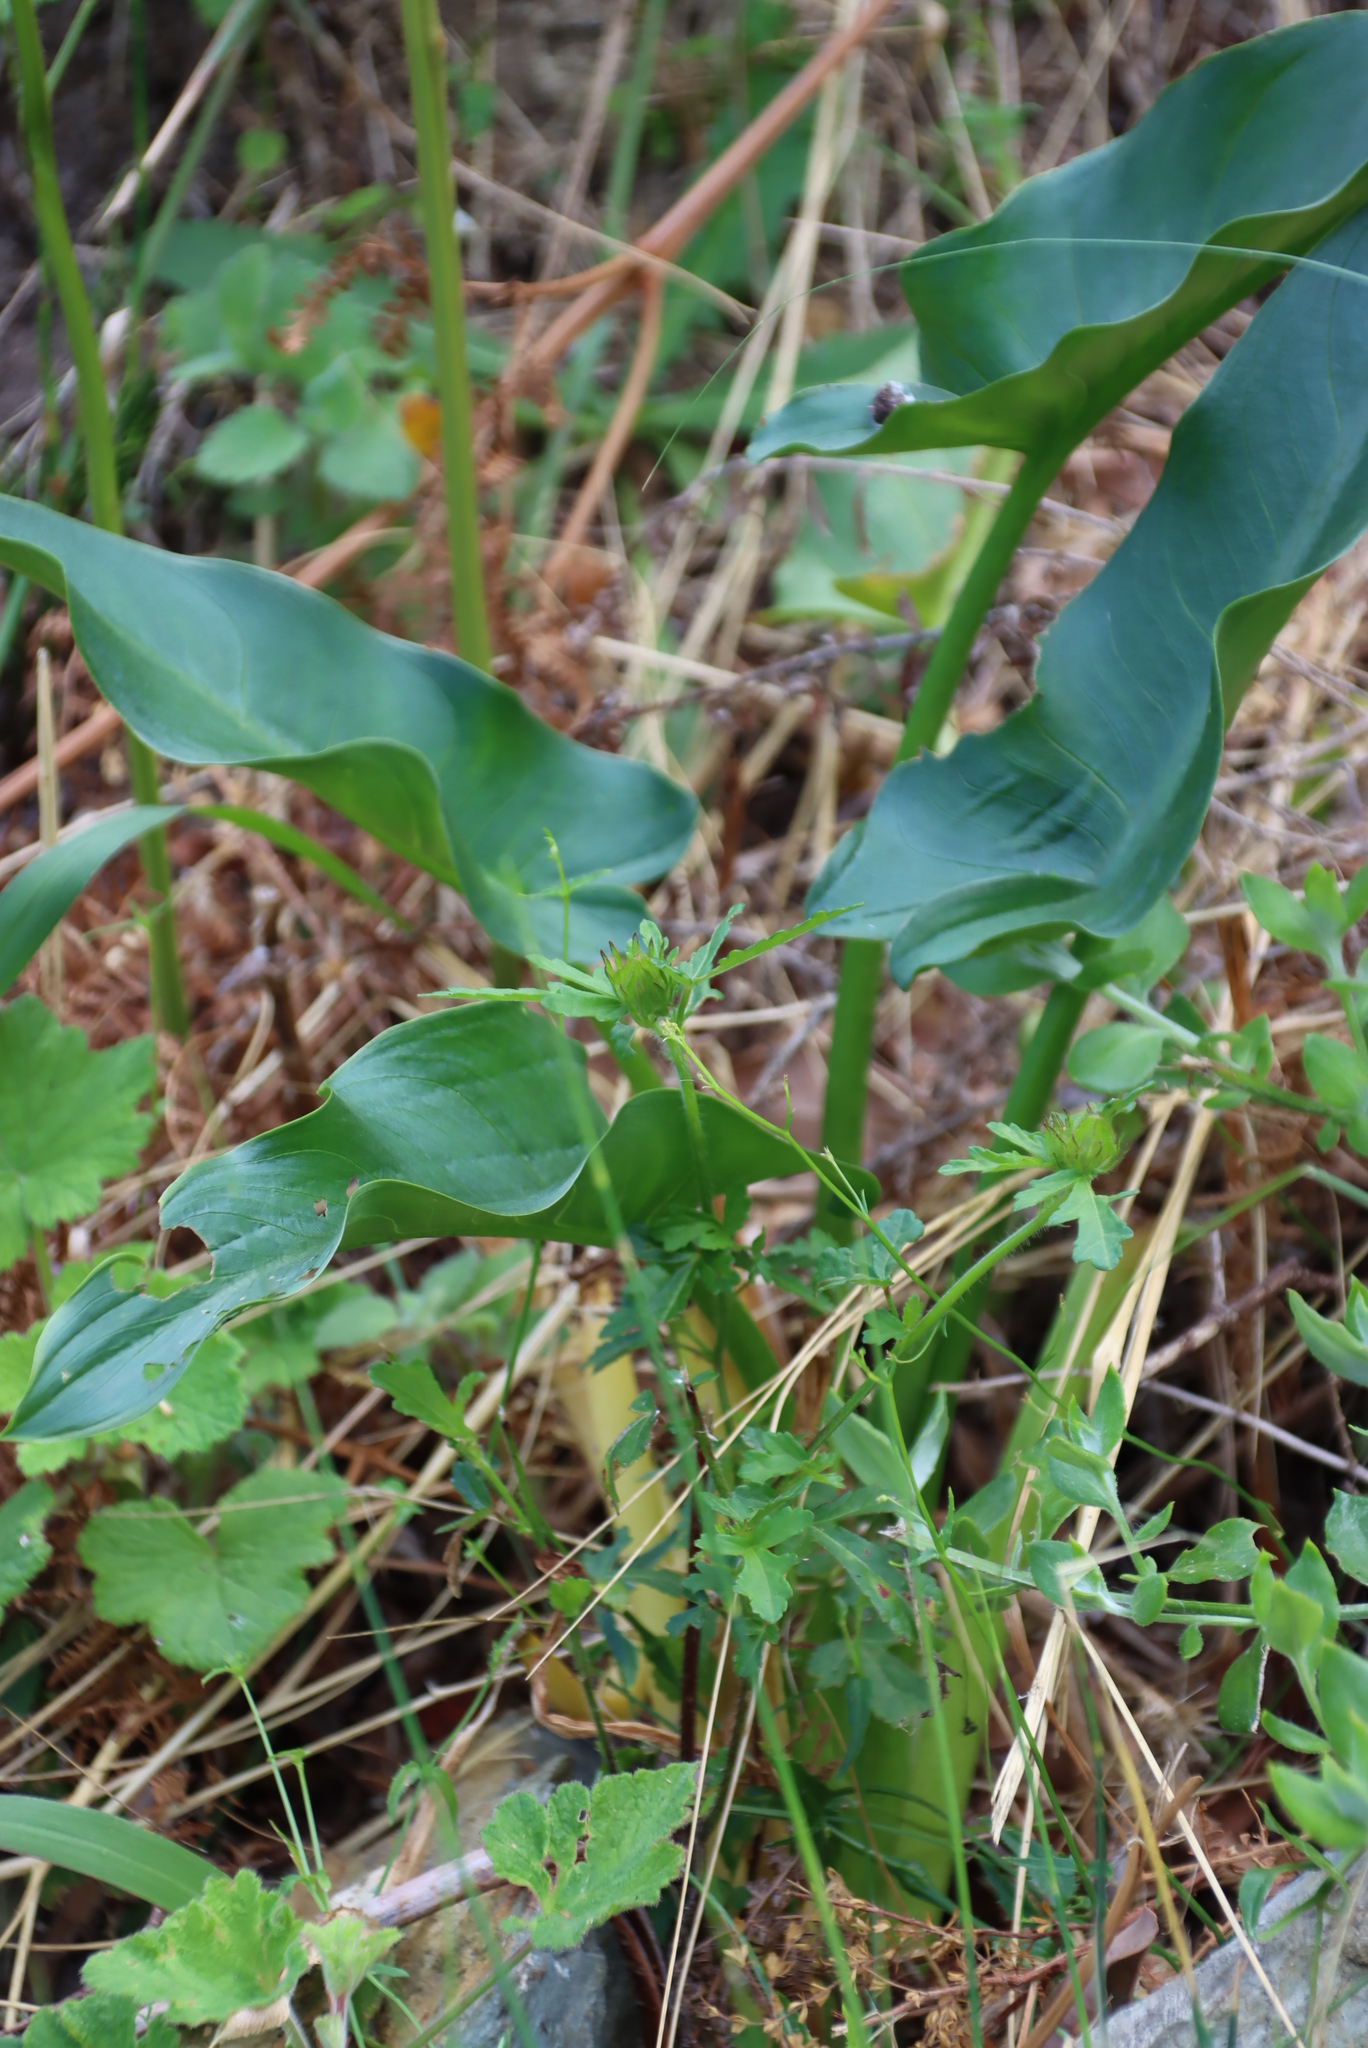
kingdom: Plantae
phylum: Tracheophyta
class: Liliopsida
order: Alismatales
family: Araceae
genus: Zantedeschia
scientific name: Zantedeschia aethiopica
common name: Altar-lily
